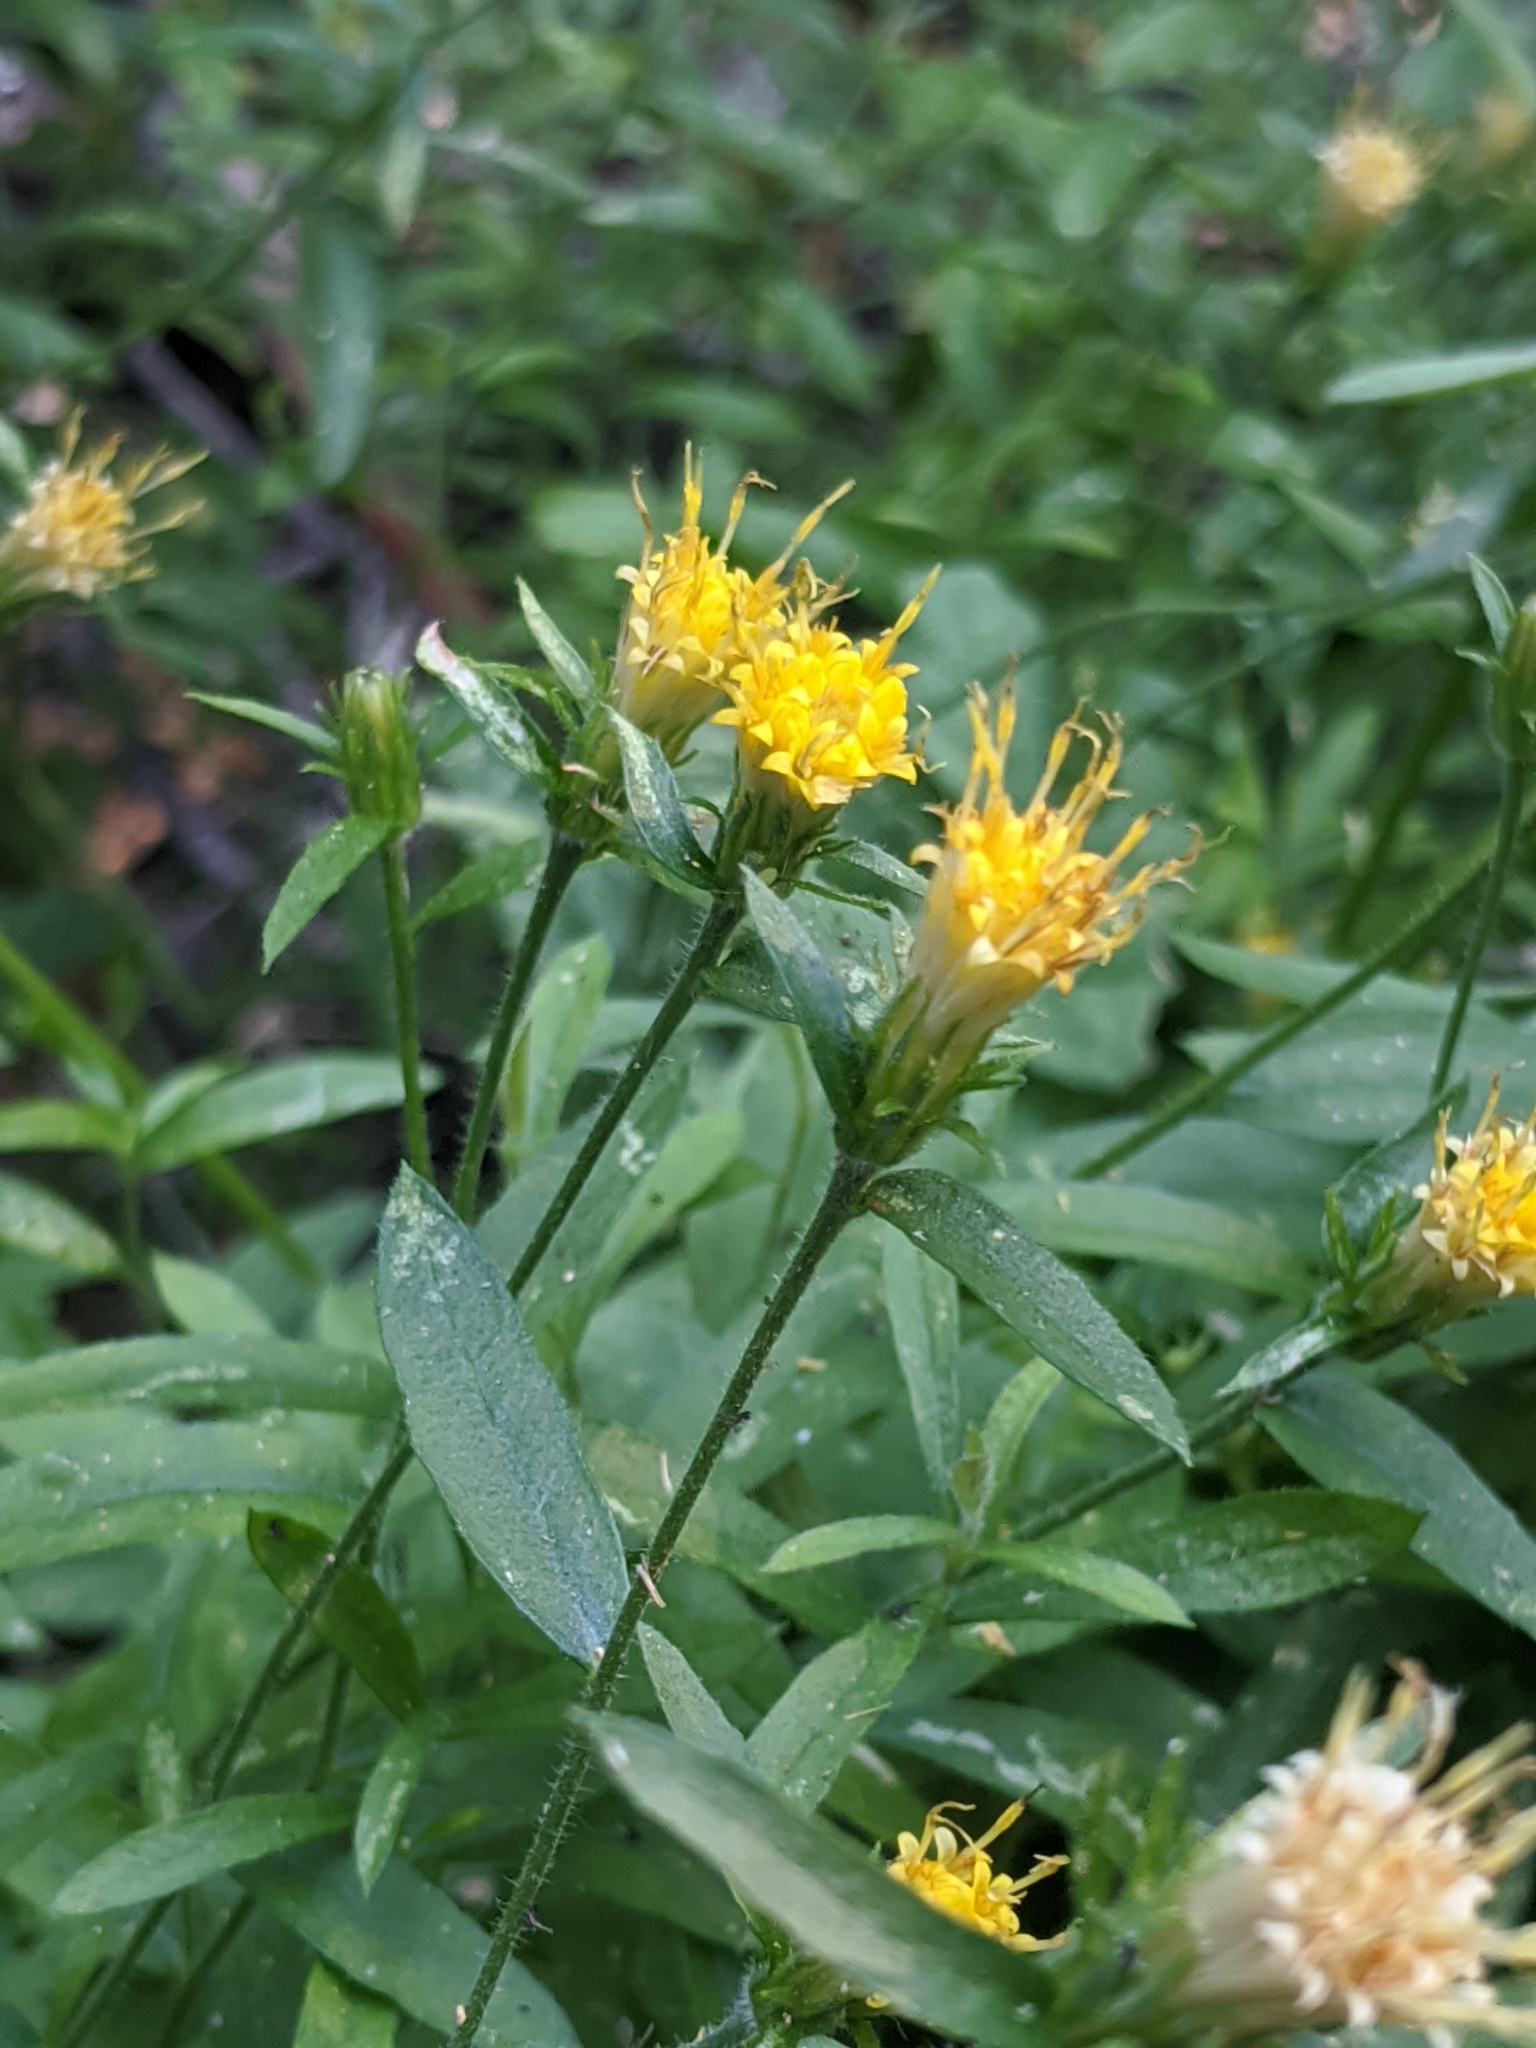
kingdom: Plantae
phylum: Tracheophyta
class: Magnoliopsida
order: Asterales
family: Asteraceae
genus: Eucephalus
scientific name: Eucephalus breweri
